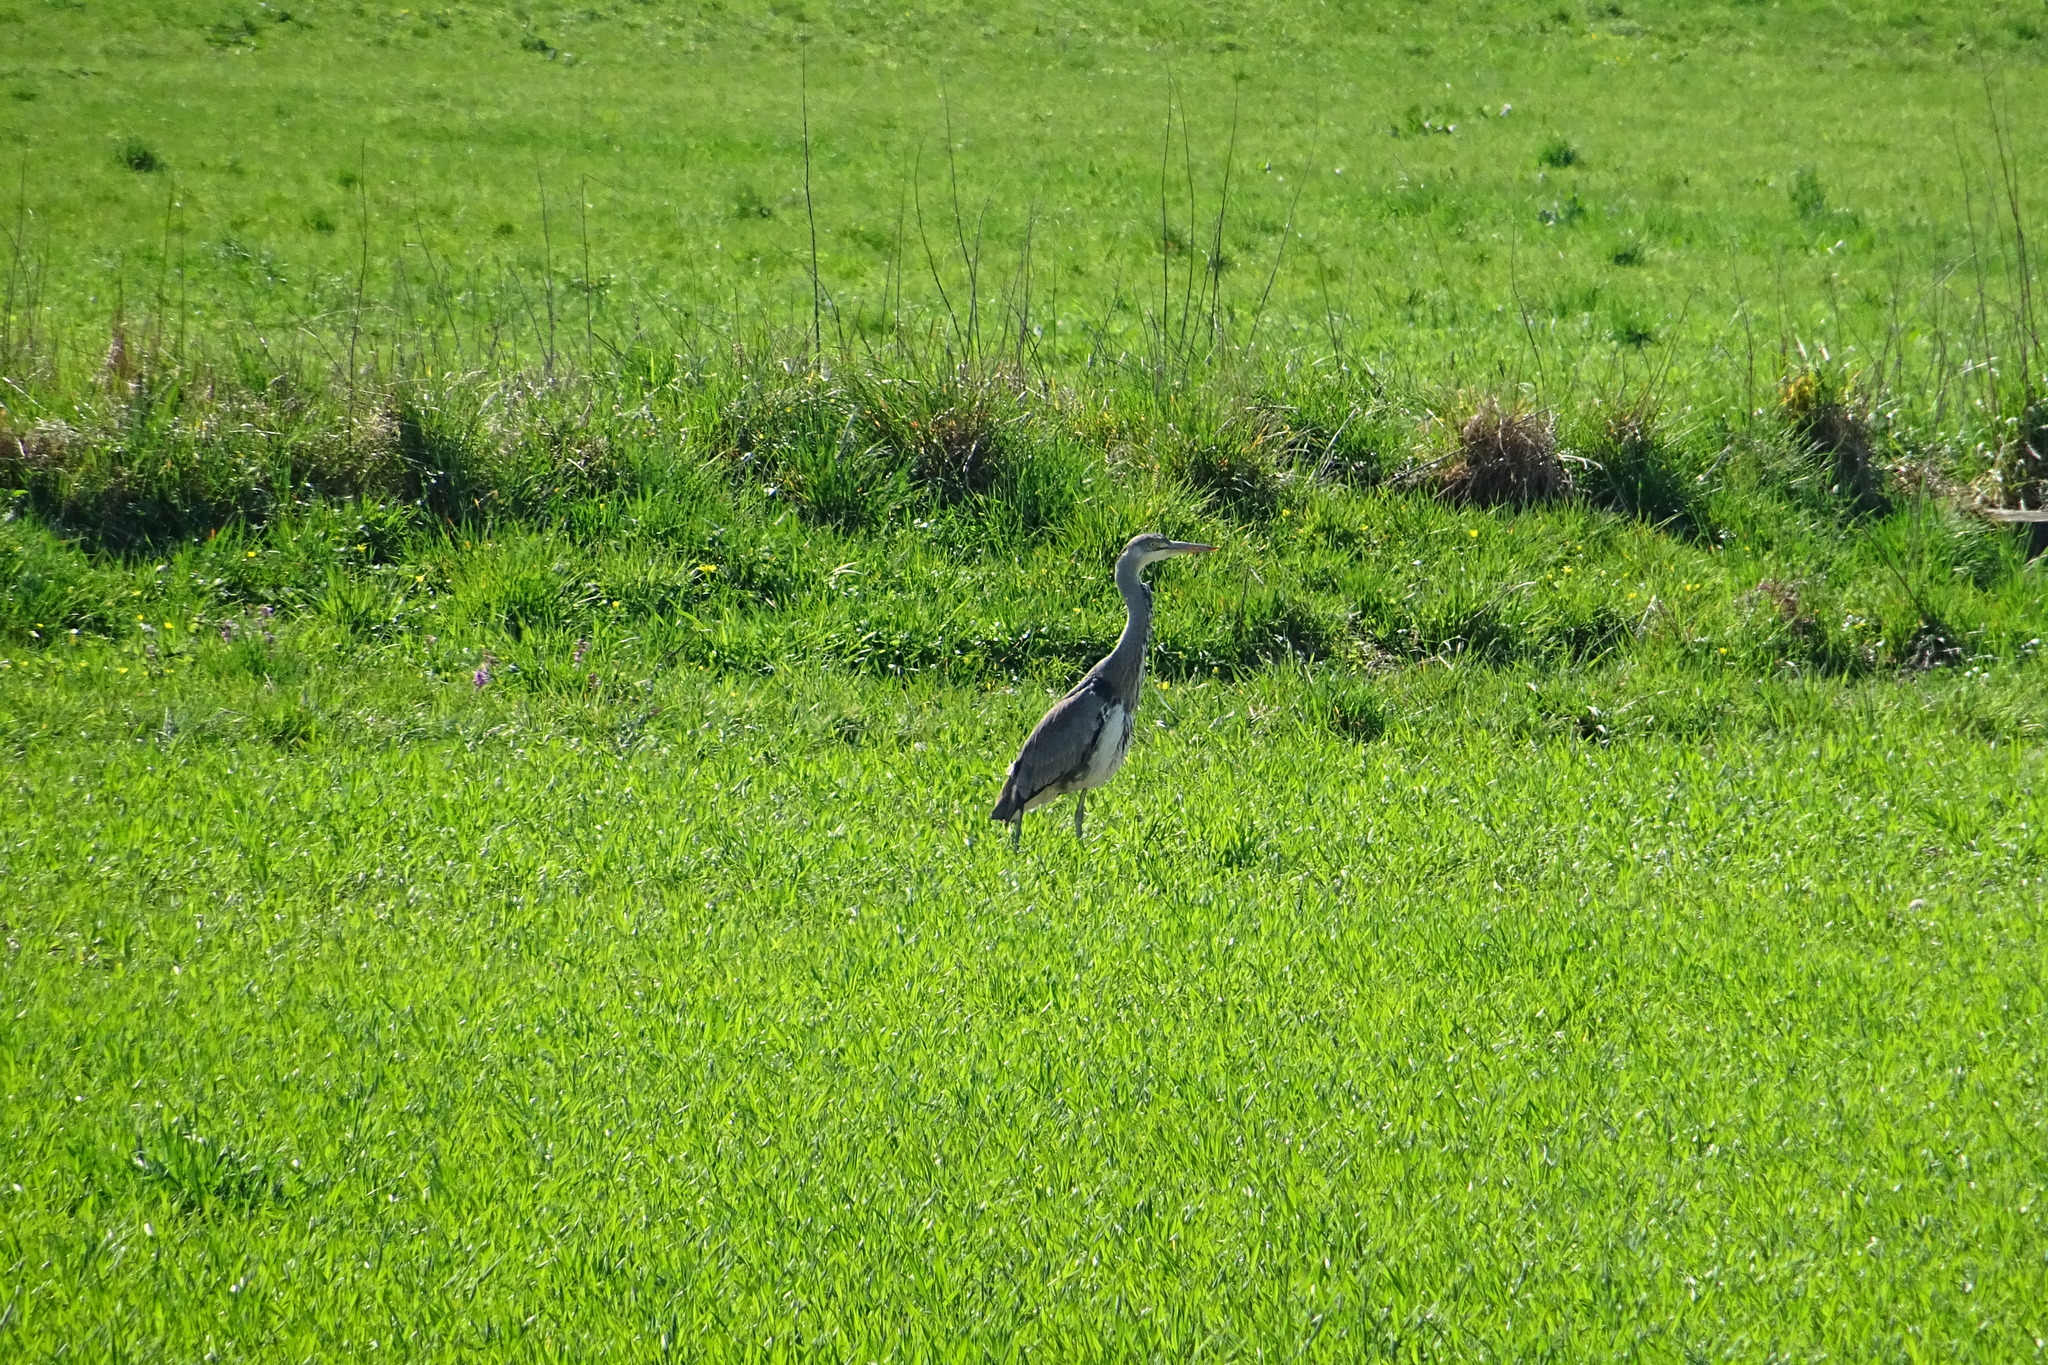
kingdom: Animalia
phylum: Chordata
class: Aves
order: Pelecaniformes
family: Ardeidae
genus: Ardea
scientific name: Ardea cinerea
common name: Grey heron
